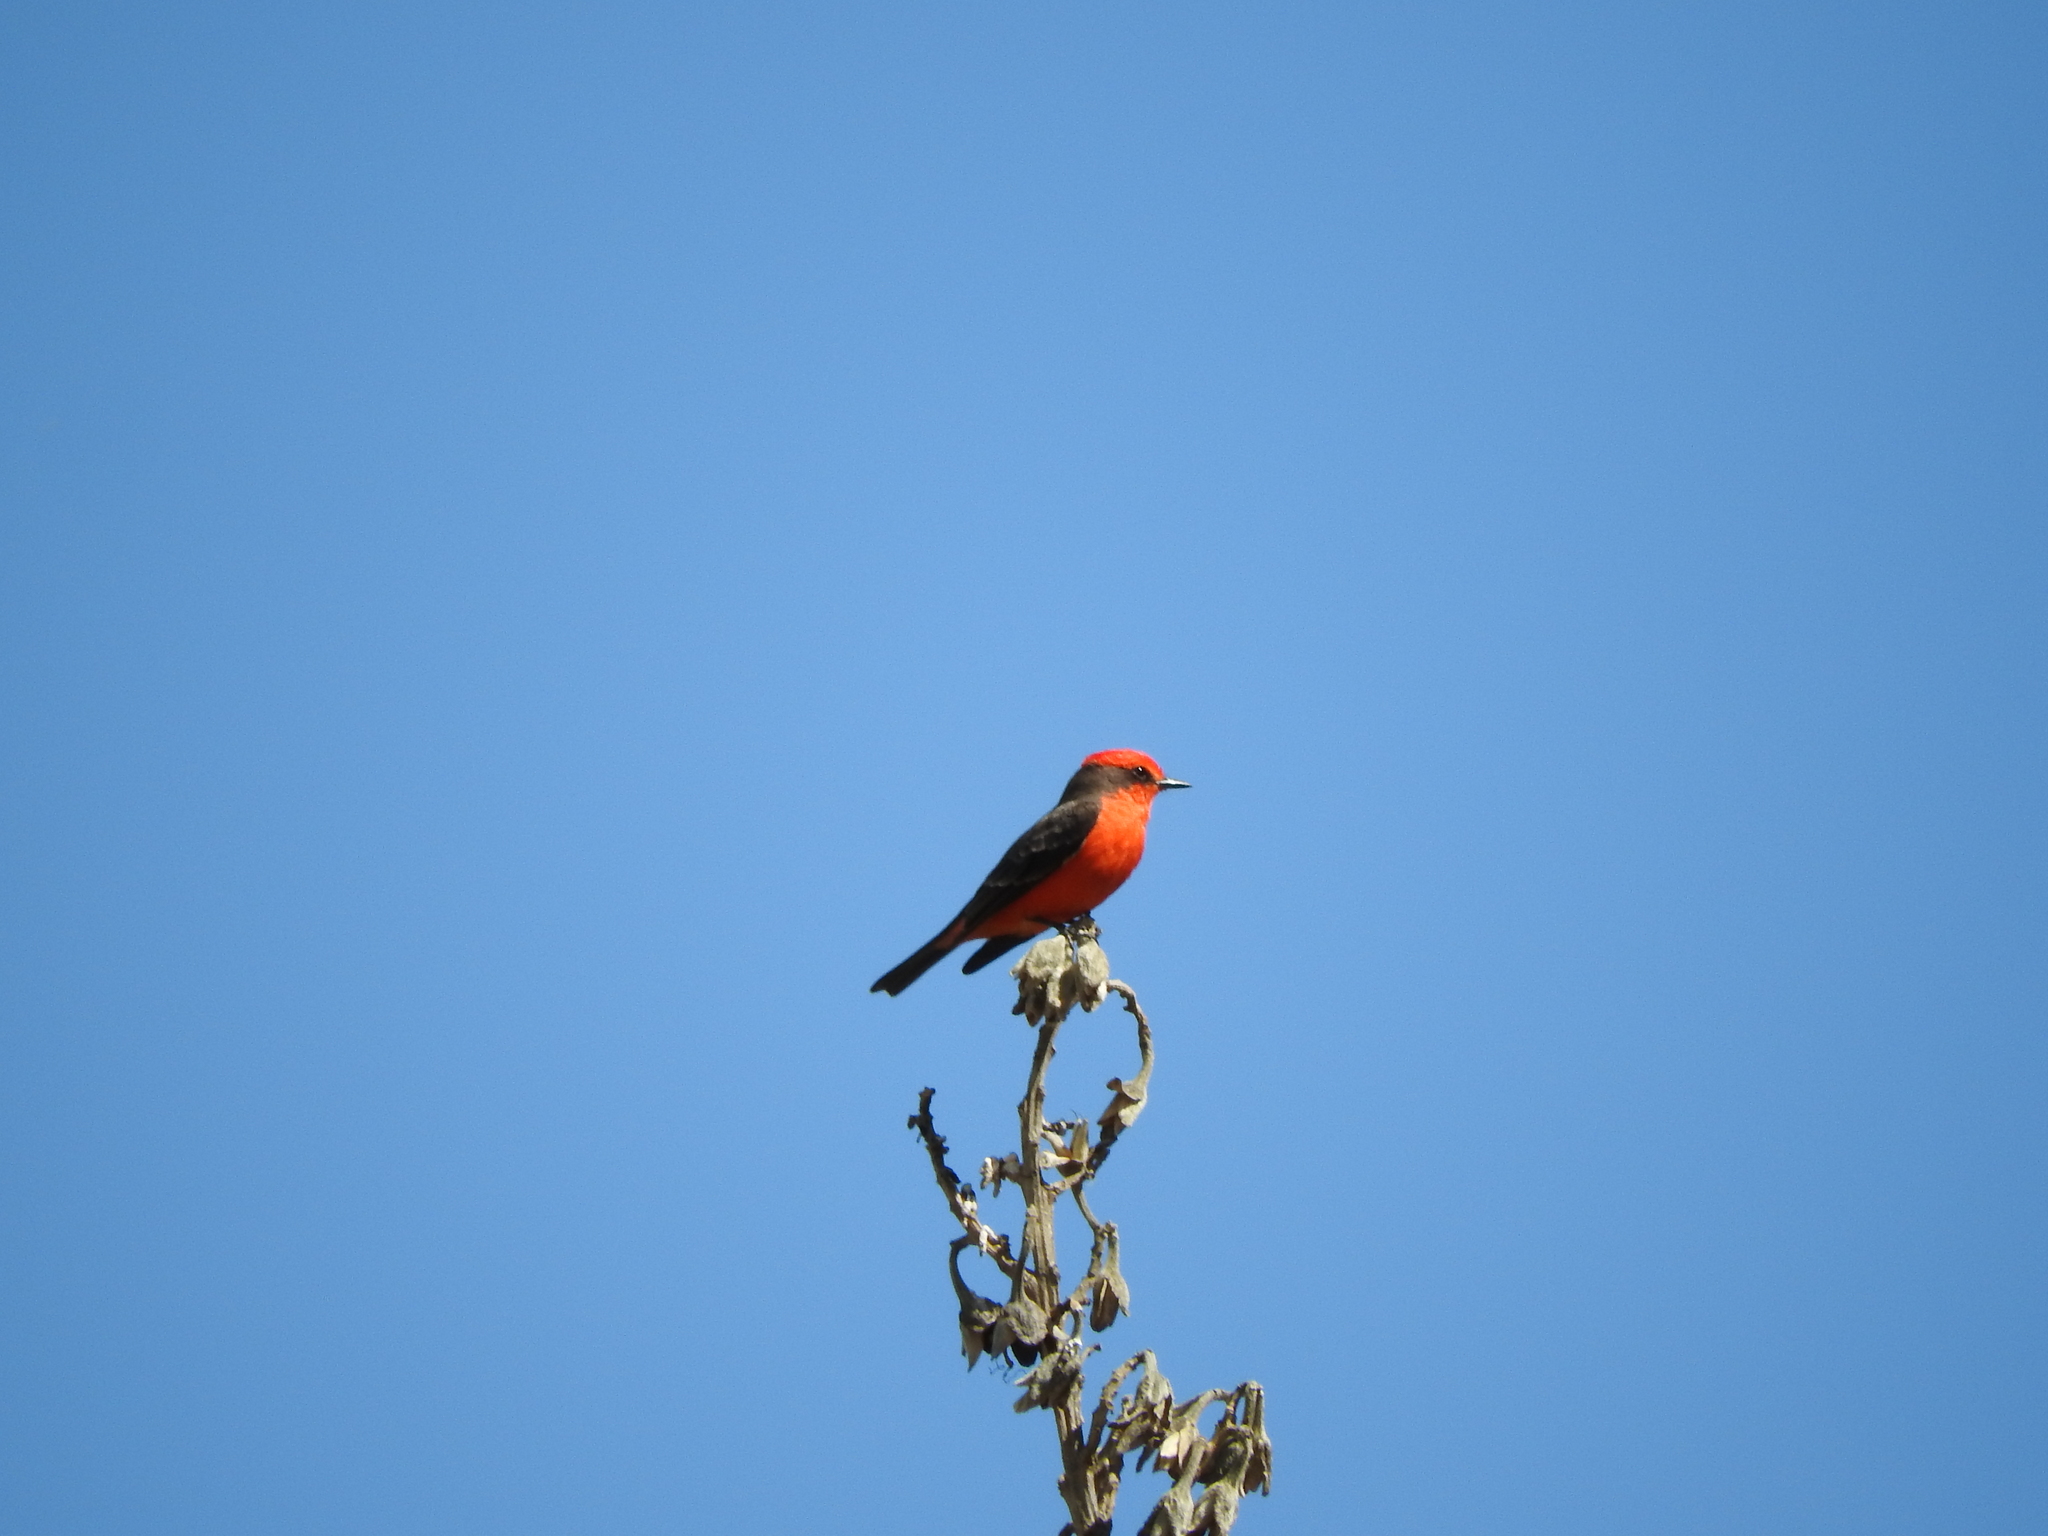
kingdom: Animalia
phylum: Chordata
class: Aves
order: Passeriformes
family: Tyrannidae
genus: Pyrocephalus
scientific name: Pyrocephalus rubinus
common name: Vermilion flycatcher
